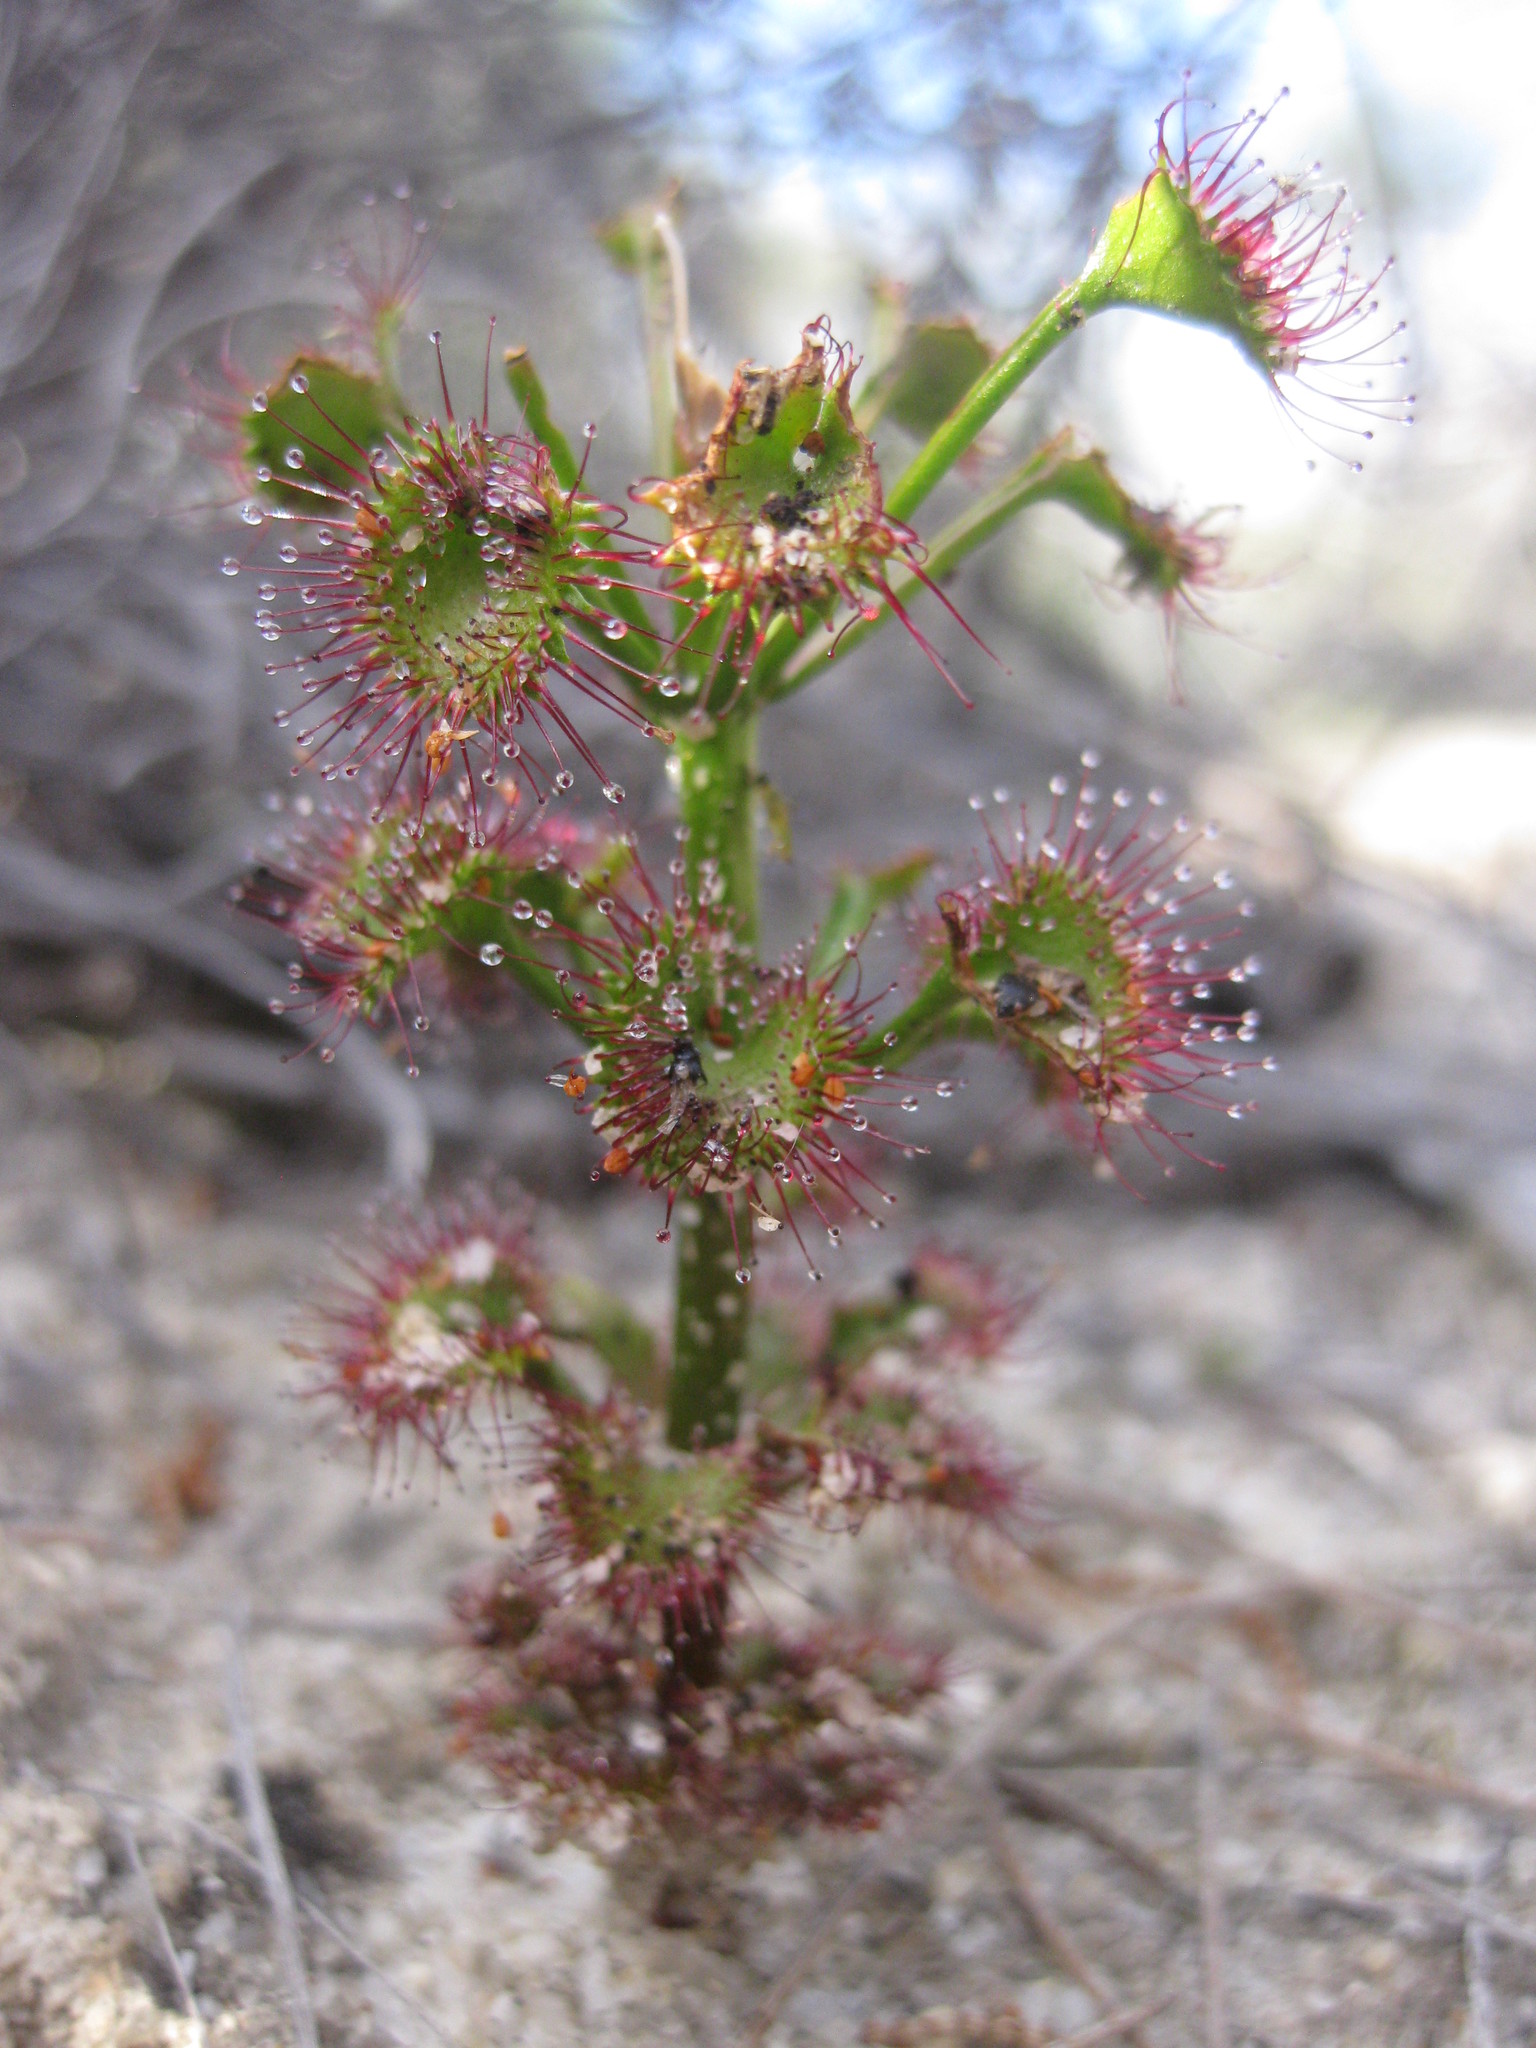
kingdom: Plantae
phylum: Tracheophyta
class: Magnoliopsida
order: Caryophyllales
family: Droseraceae
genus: Drosera
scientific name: Drosera stolonifera
